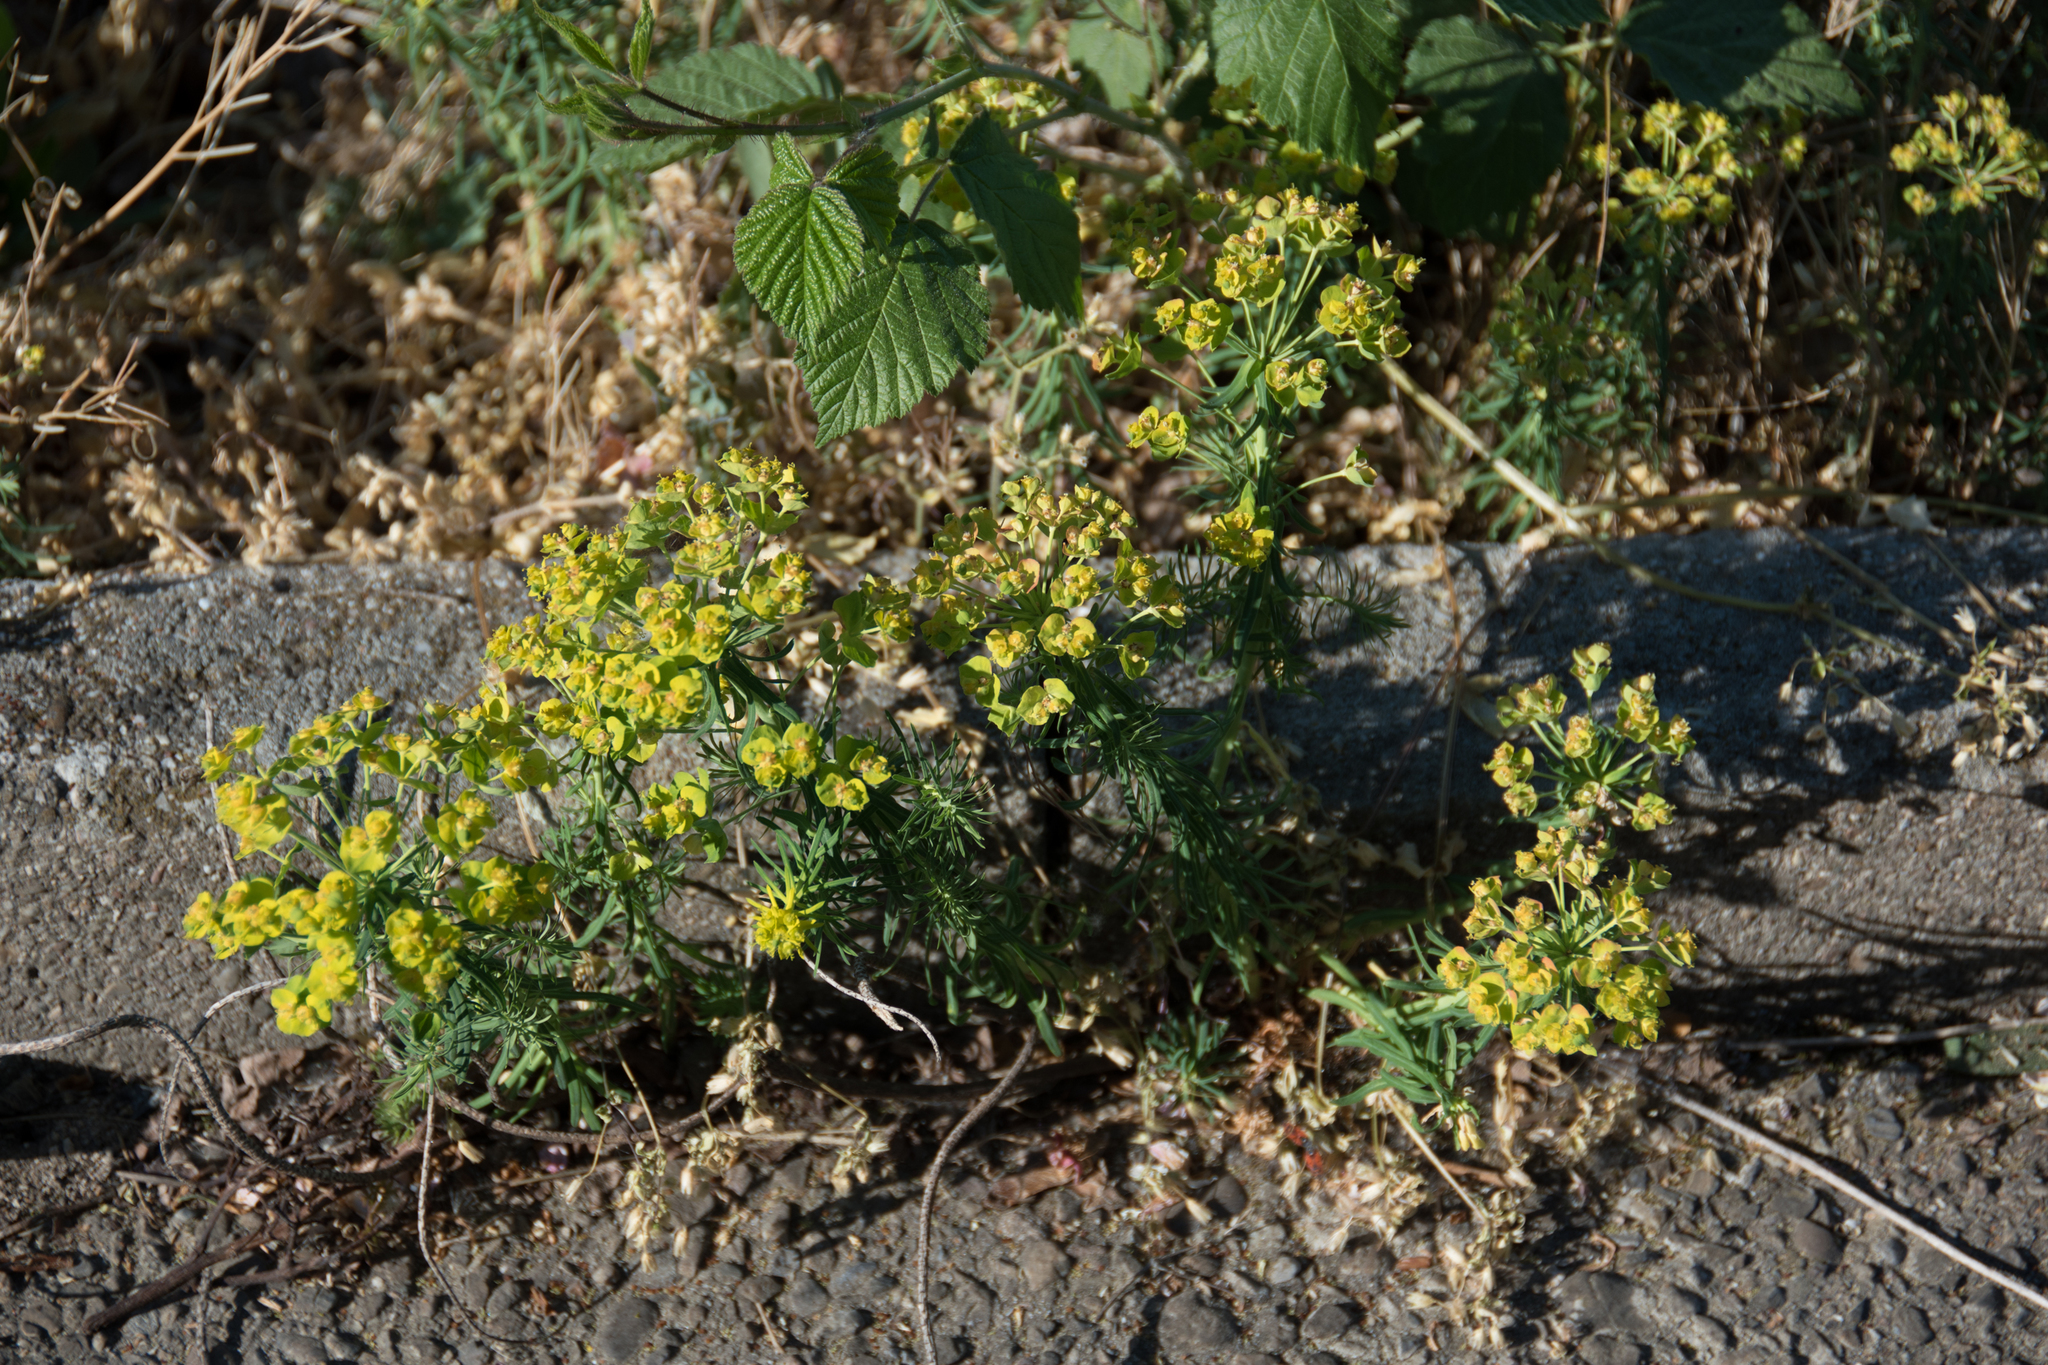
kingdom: Plantae
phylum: Tracheophyta
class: Magnoliopsida
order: Malpighiales
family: Euphorbiaceae
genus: Euphorbia
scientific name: Euphorbia cyparissias
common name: Cypress spurge
